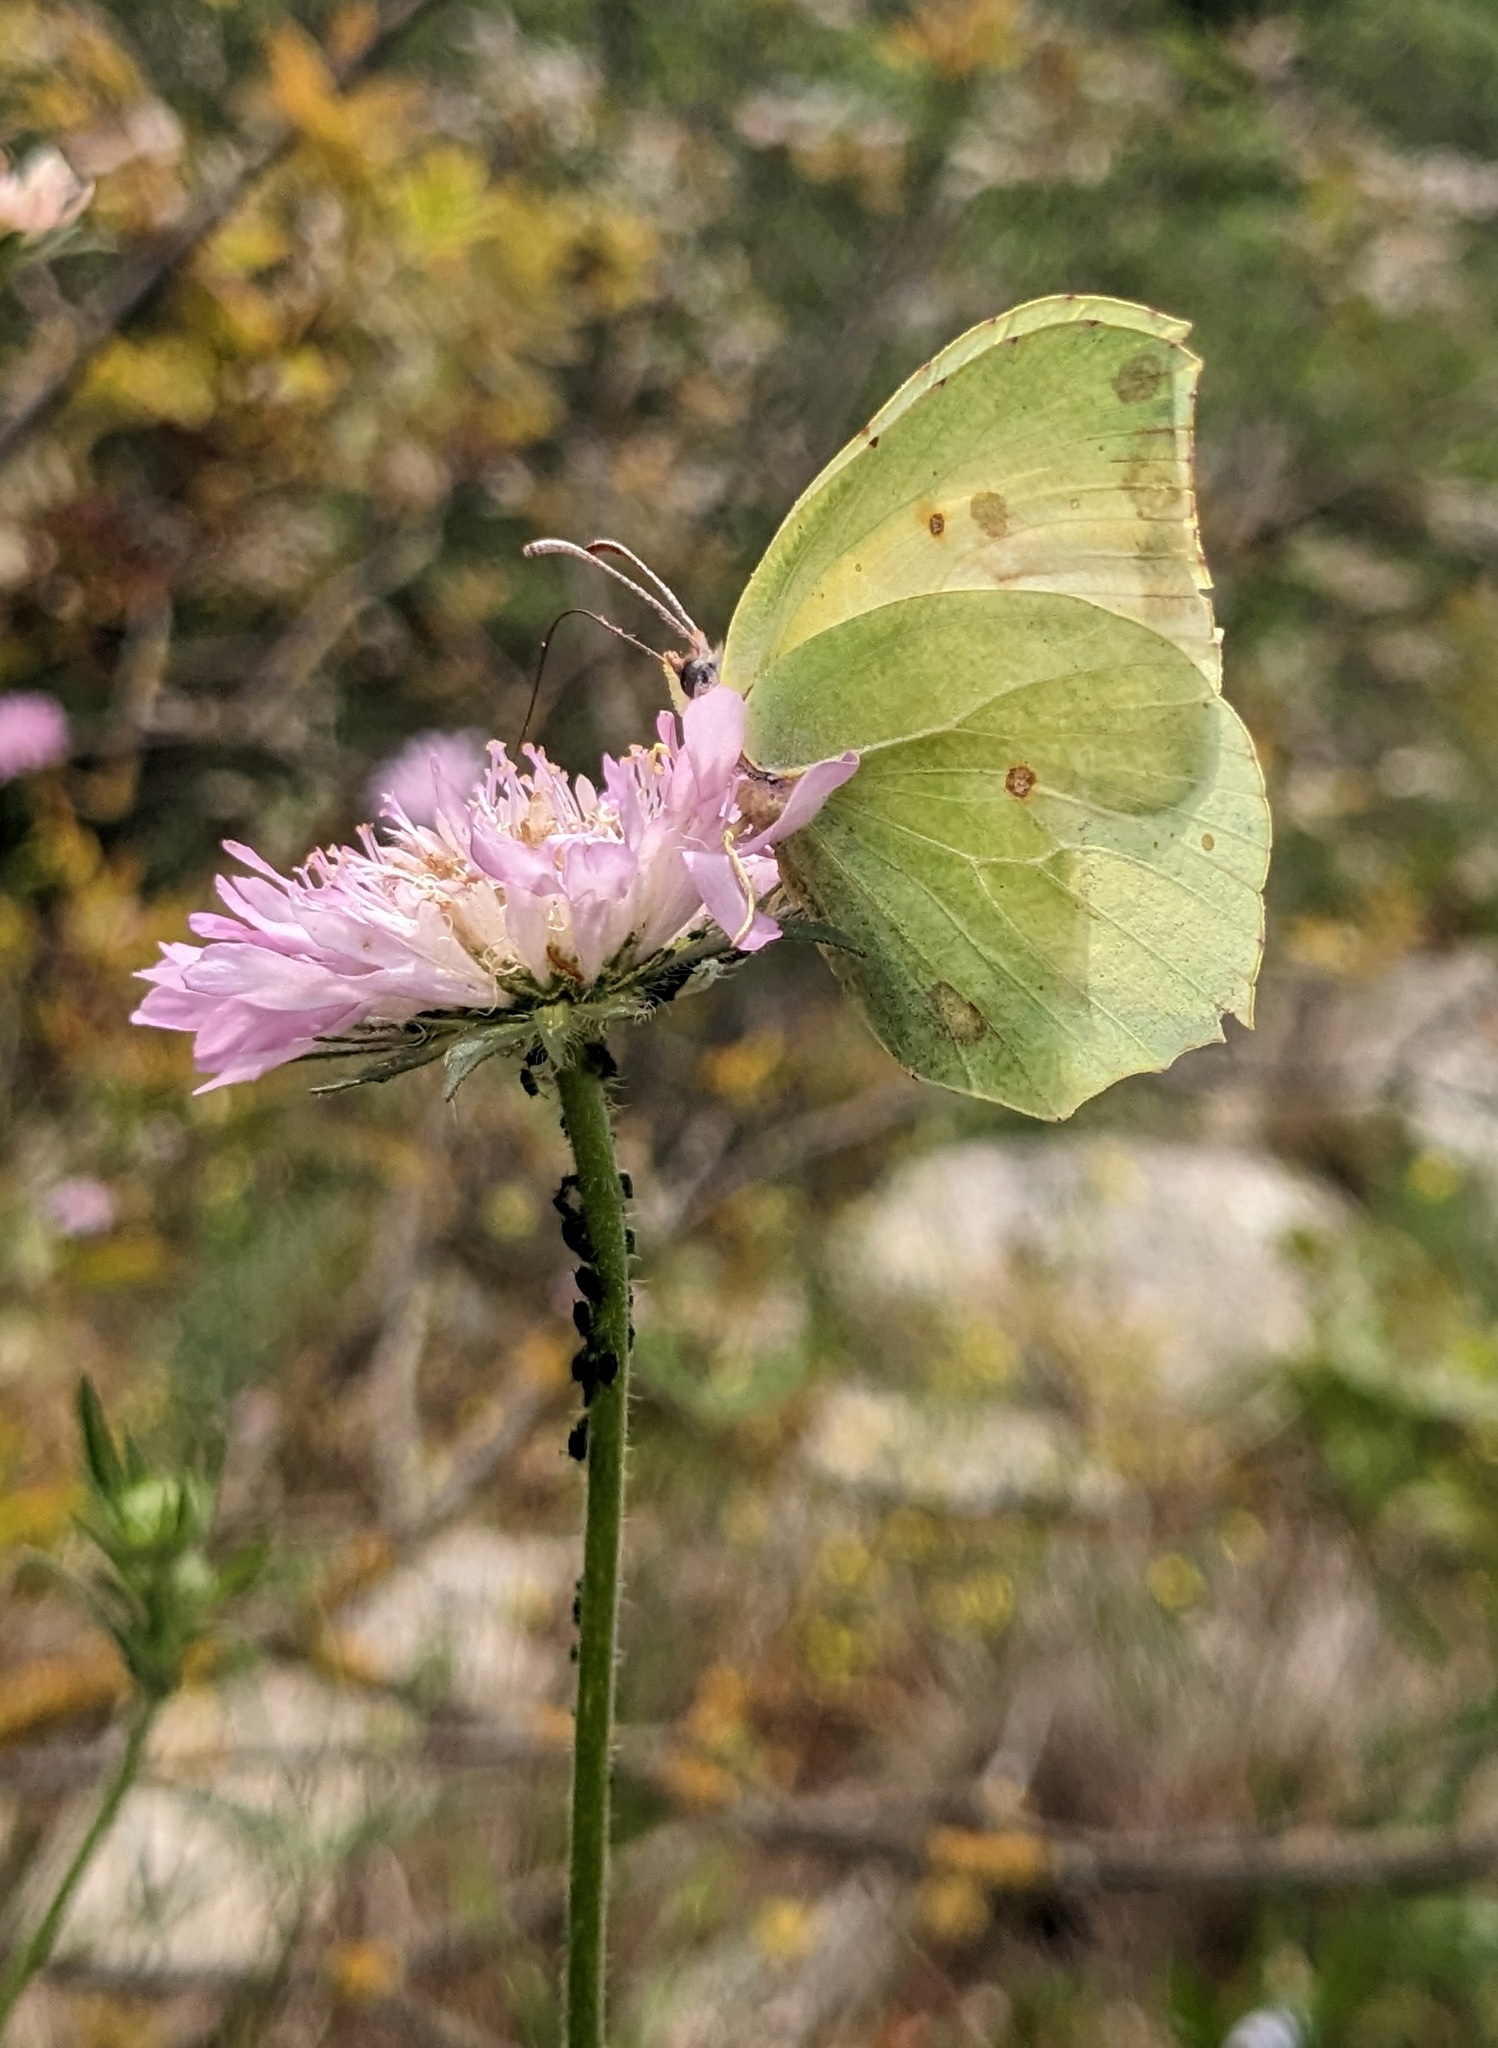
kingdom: Animalia
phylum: Arthropoda
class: Insecta
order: Lepidoptera
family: Pieridae
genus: Gonepteryx
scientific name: Gonepteryx cleopatra
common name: Cleopatra
